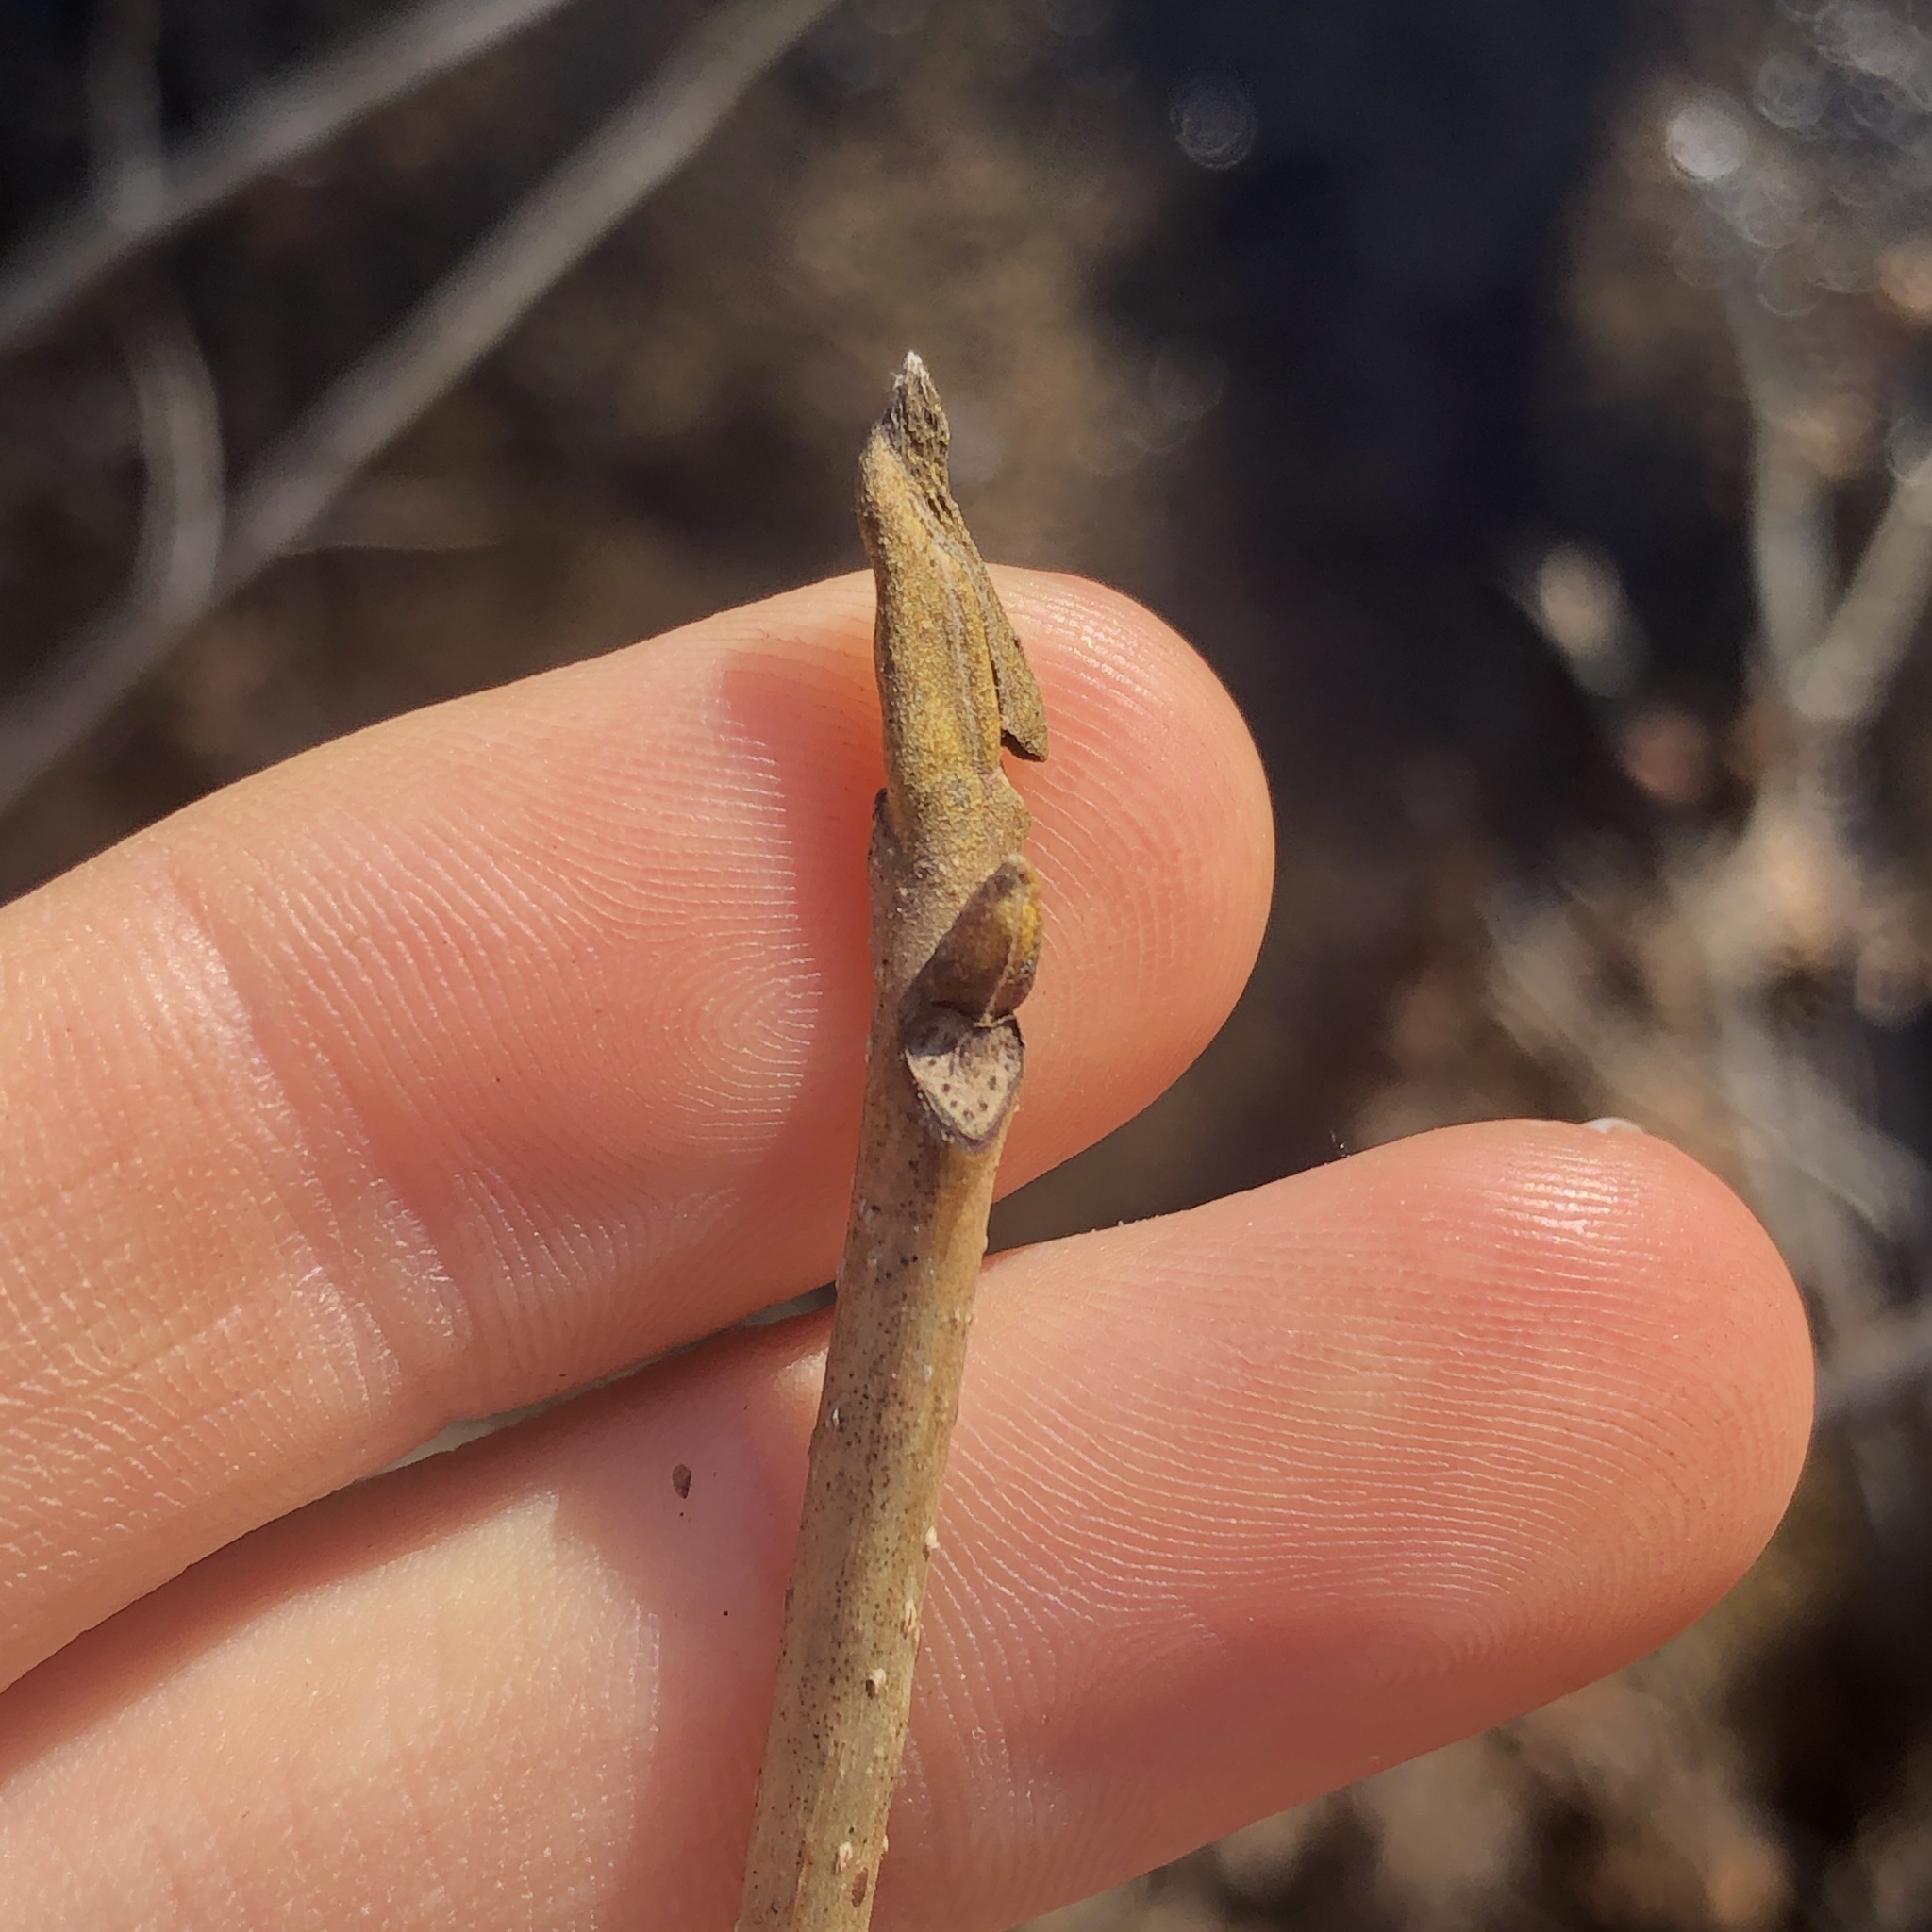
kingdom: Plantae
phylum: Tracheophyta
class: Magnoliopsida
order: Fagales
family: Juglandaceae
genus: Carya
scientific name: Carya cordiformis
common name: Bitternut hickory
